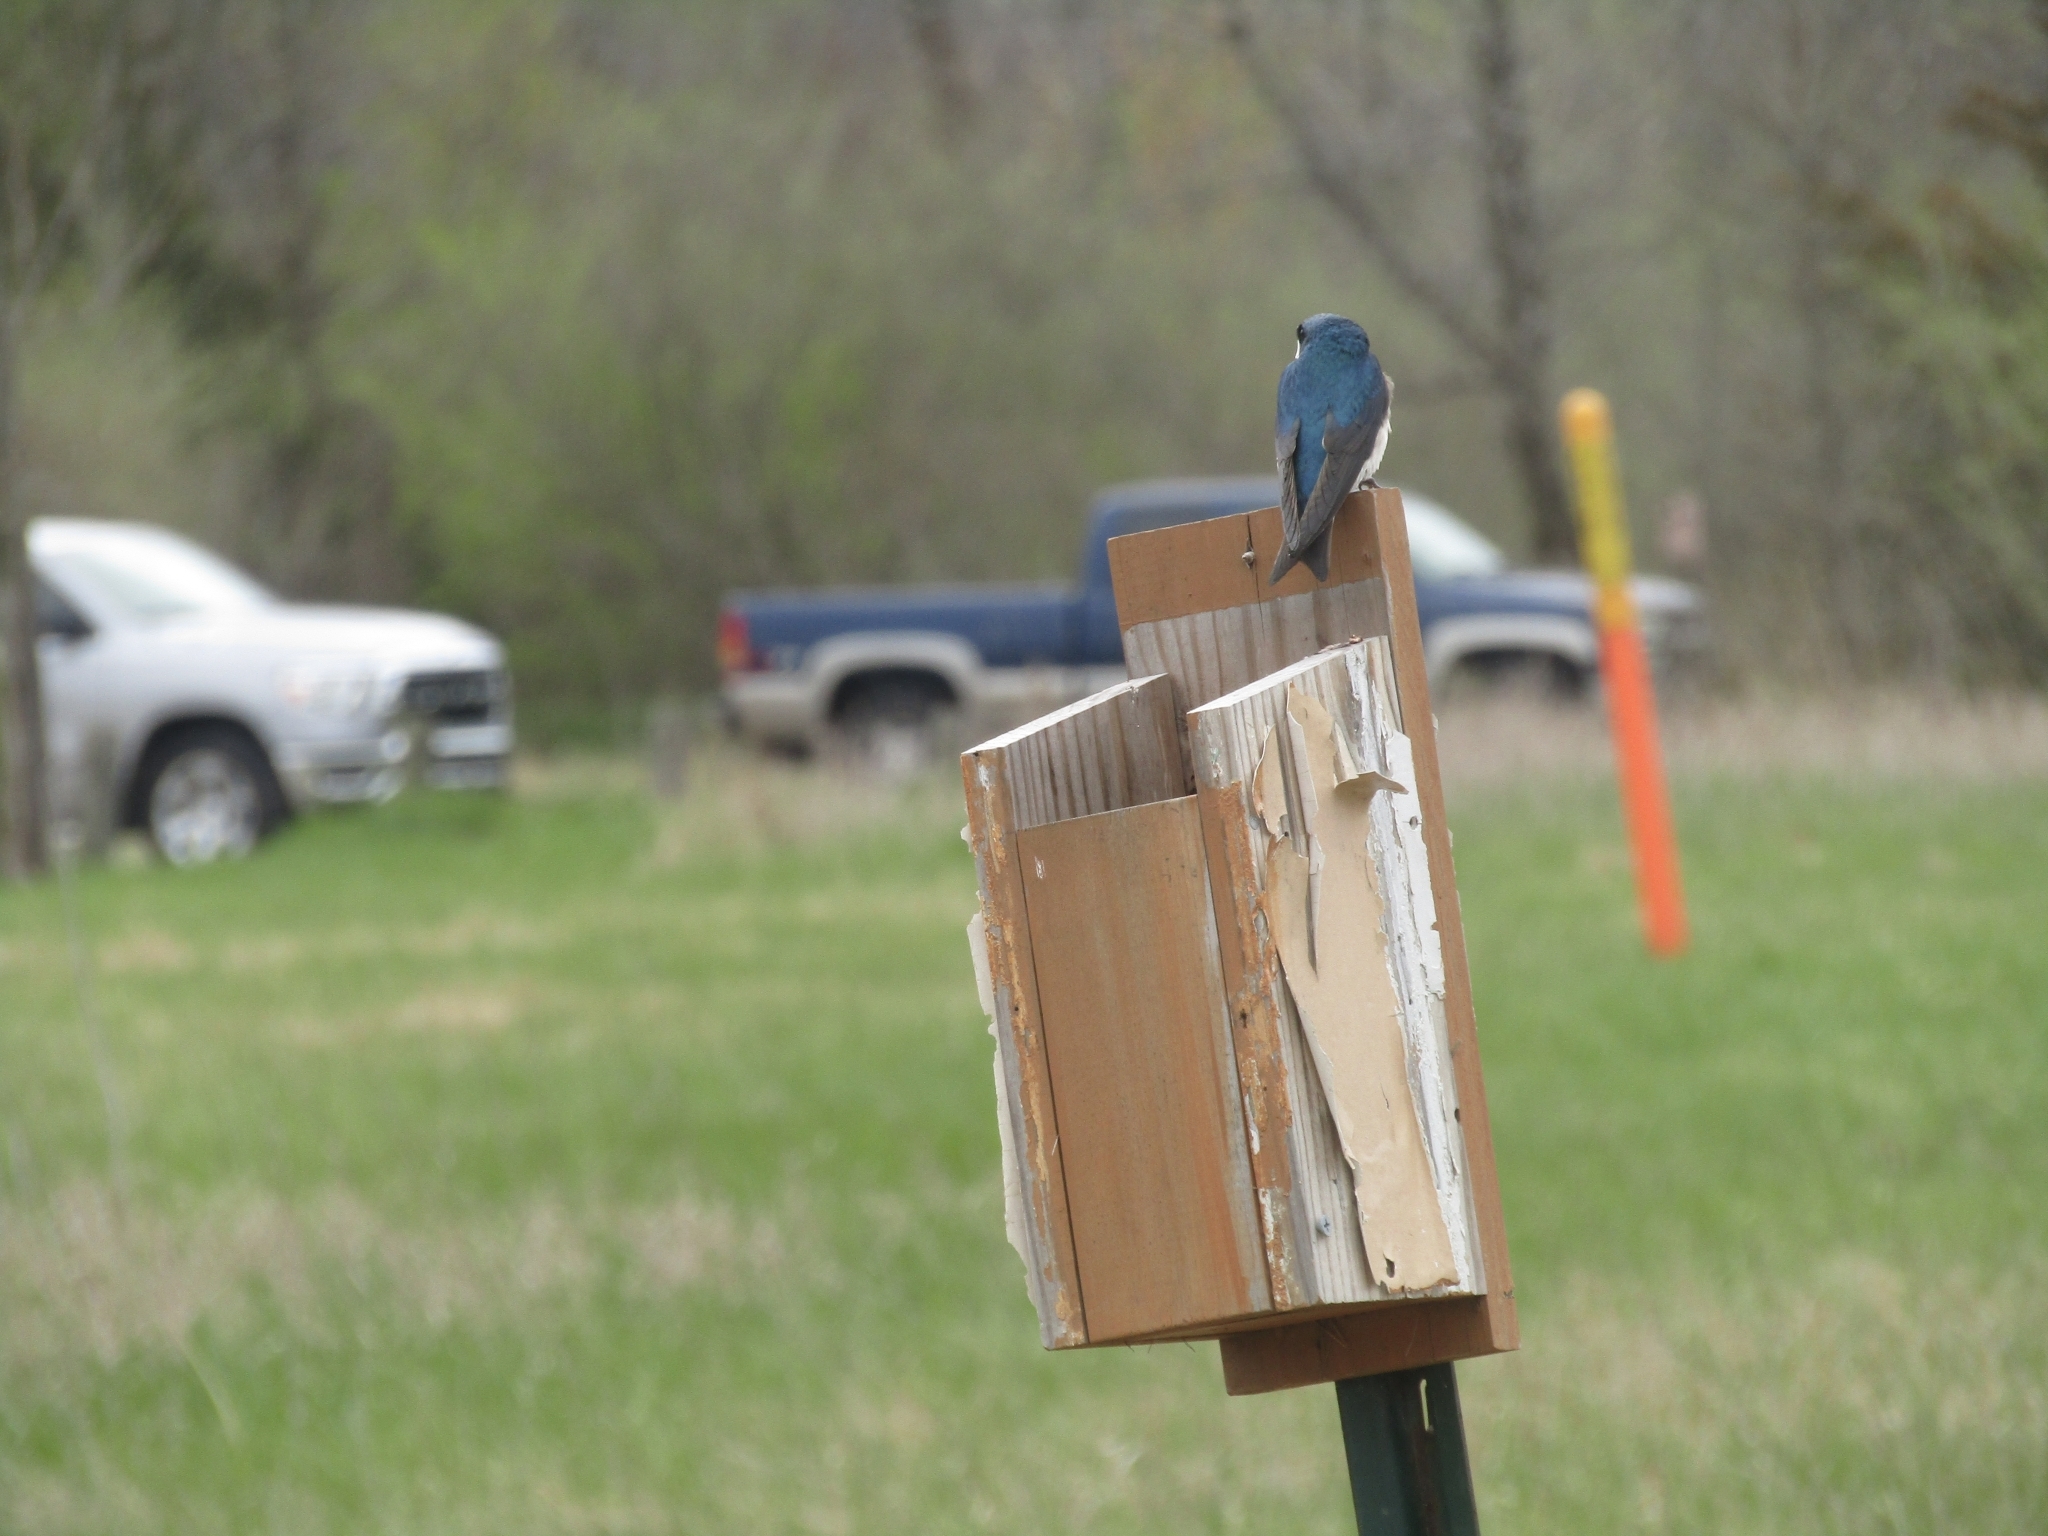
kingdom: Animalia
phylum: Chordata
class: Aves
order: Passeriformes
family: Hirundinidae
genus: Tachycineta
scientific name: Tachycineta bicolor
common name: Tree swallow
